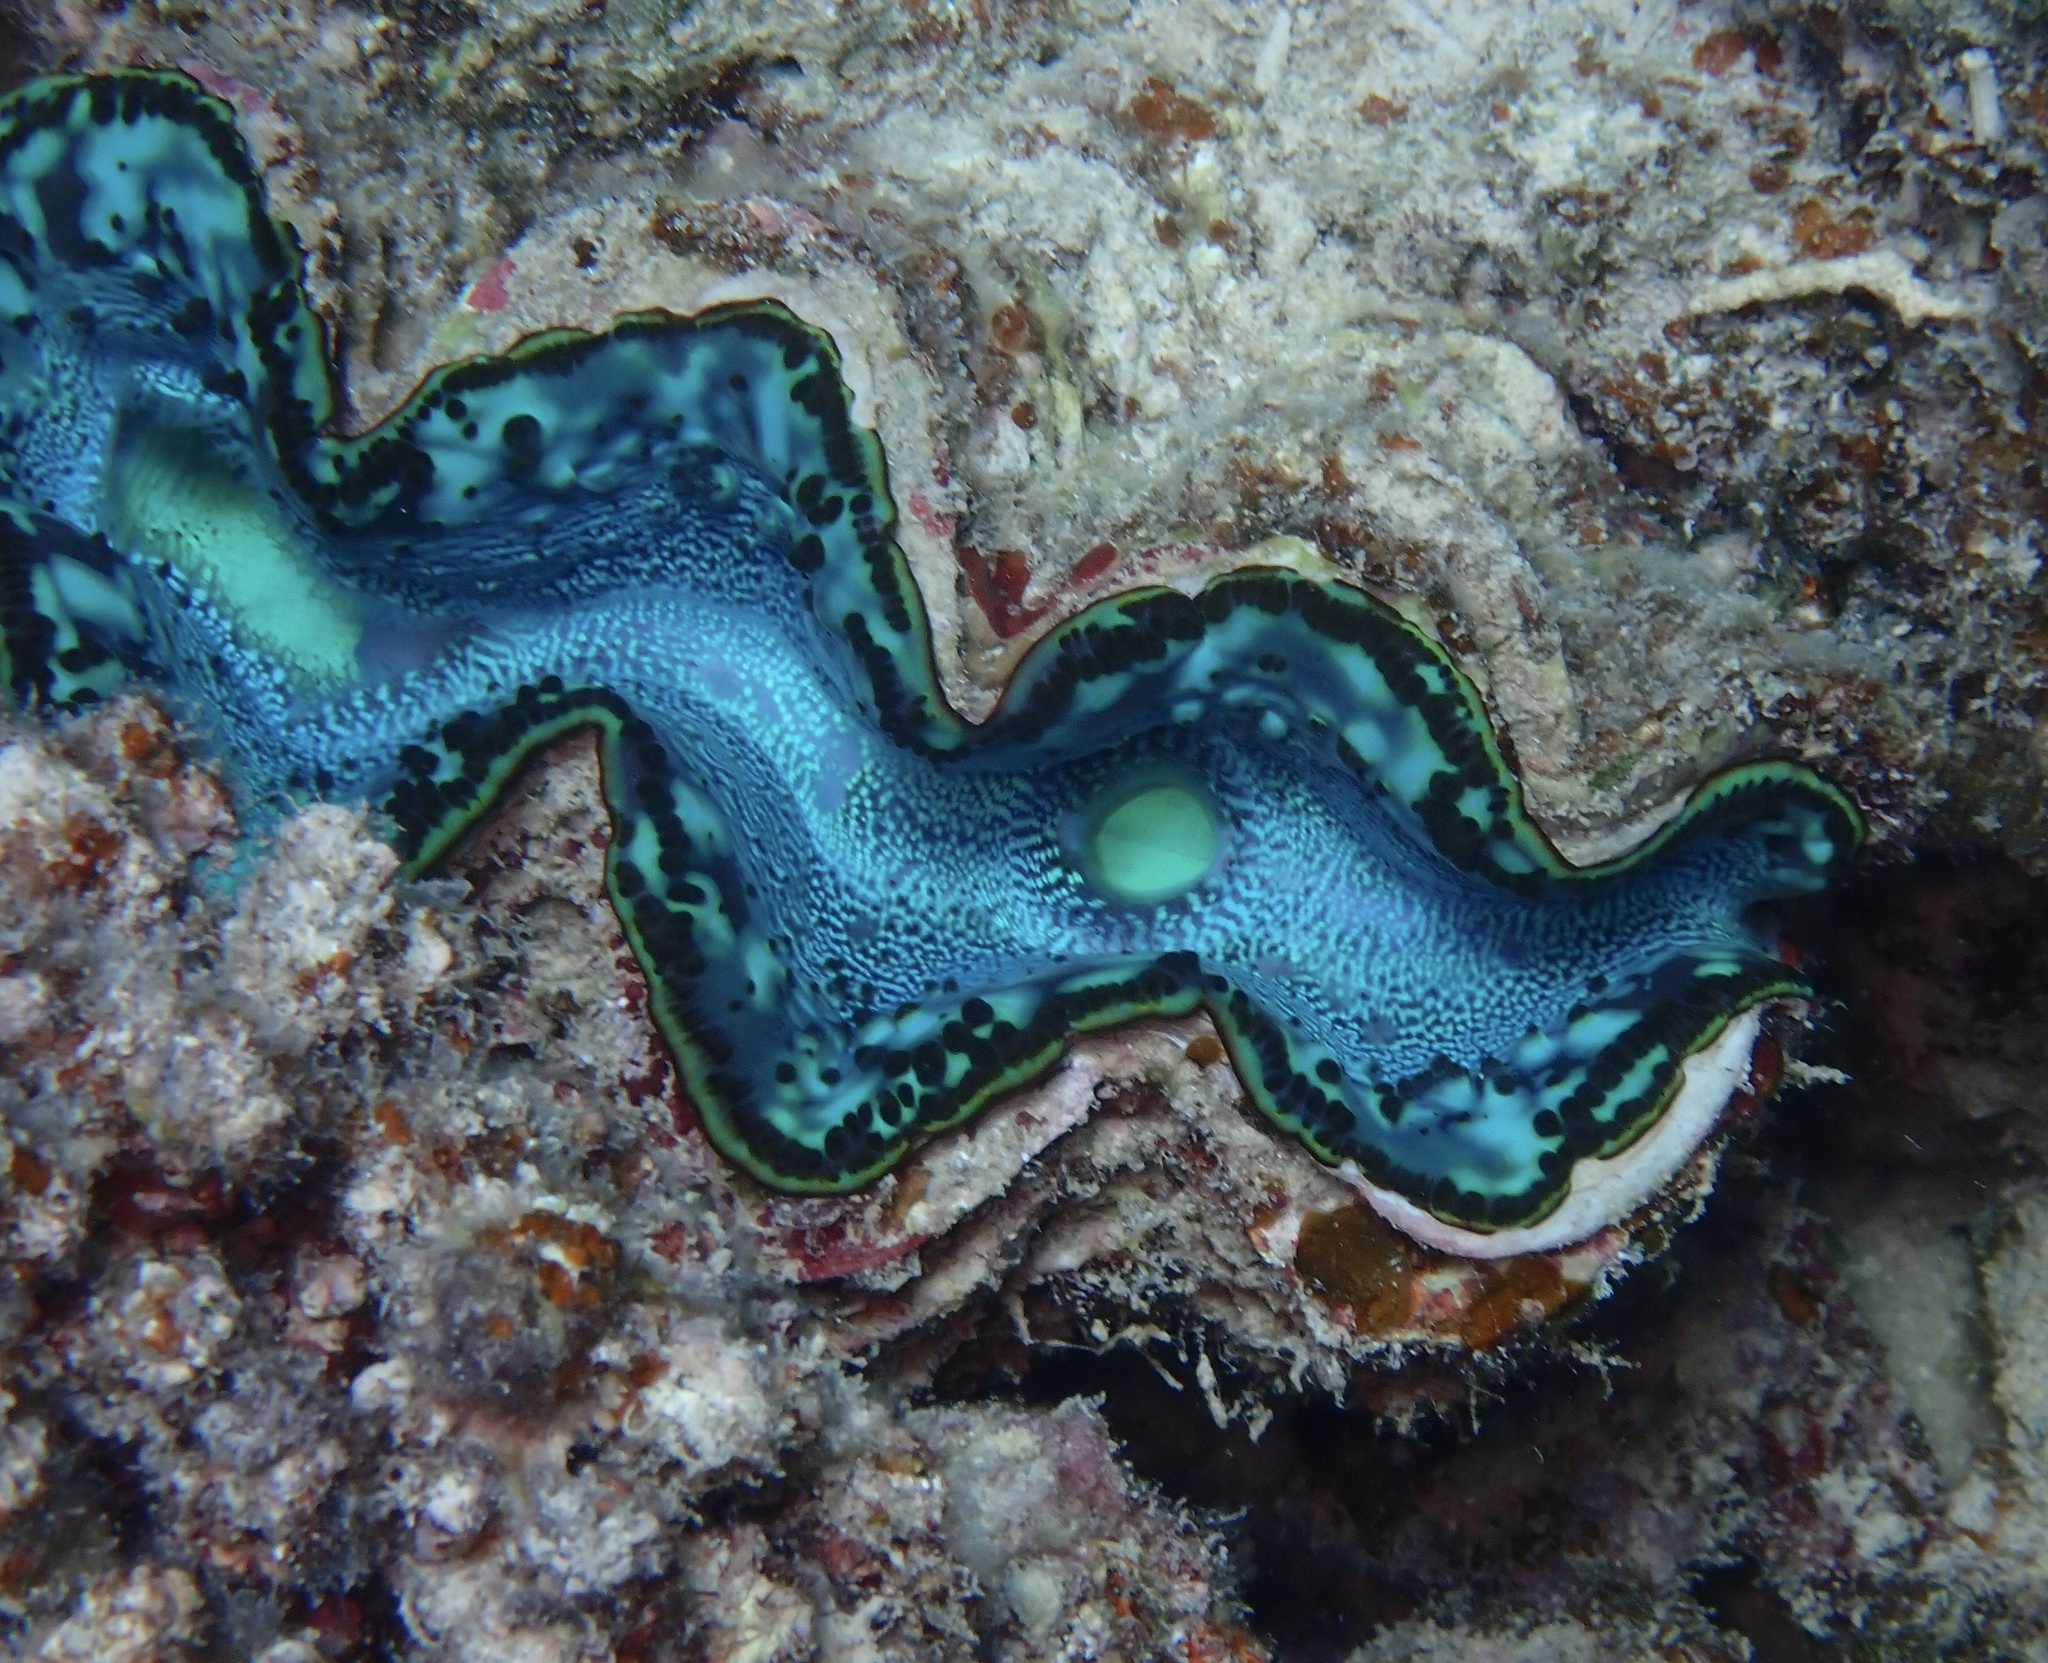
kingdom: Animalia
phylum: Mollusca
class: Bivalvia
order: Cardiida
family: Cardiidae
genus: Tridacna
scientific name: Tridacna maxima
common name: Small giant clam
